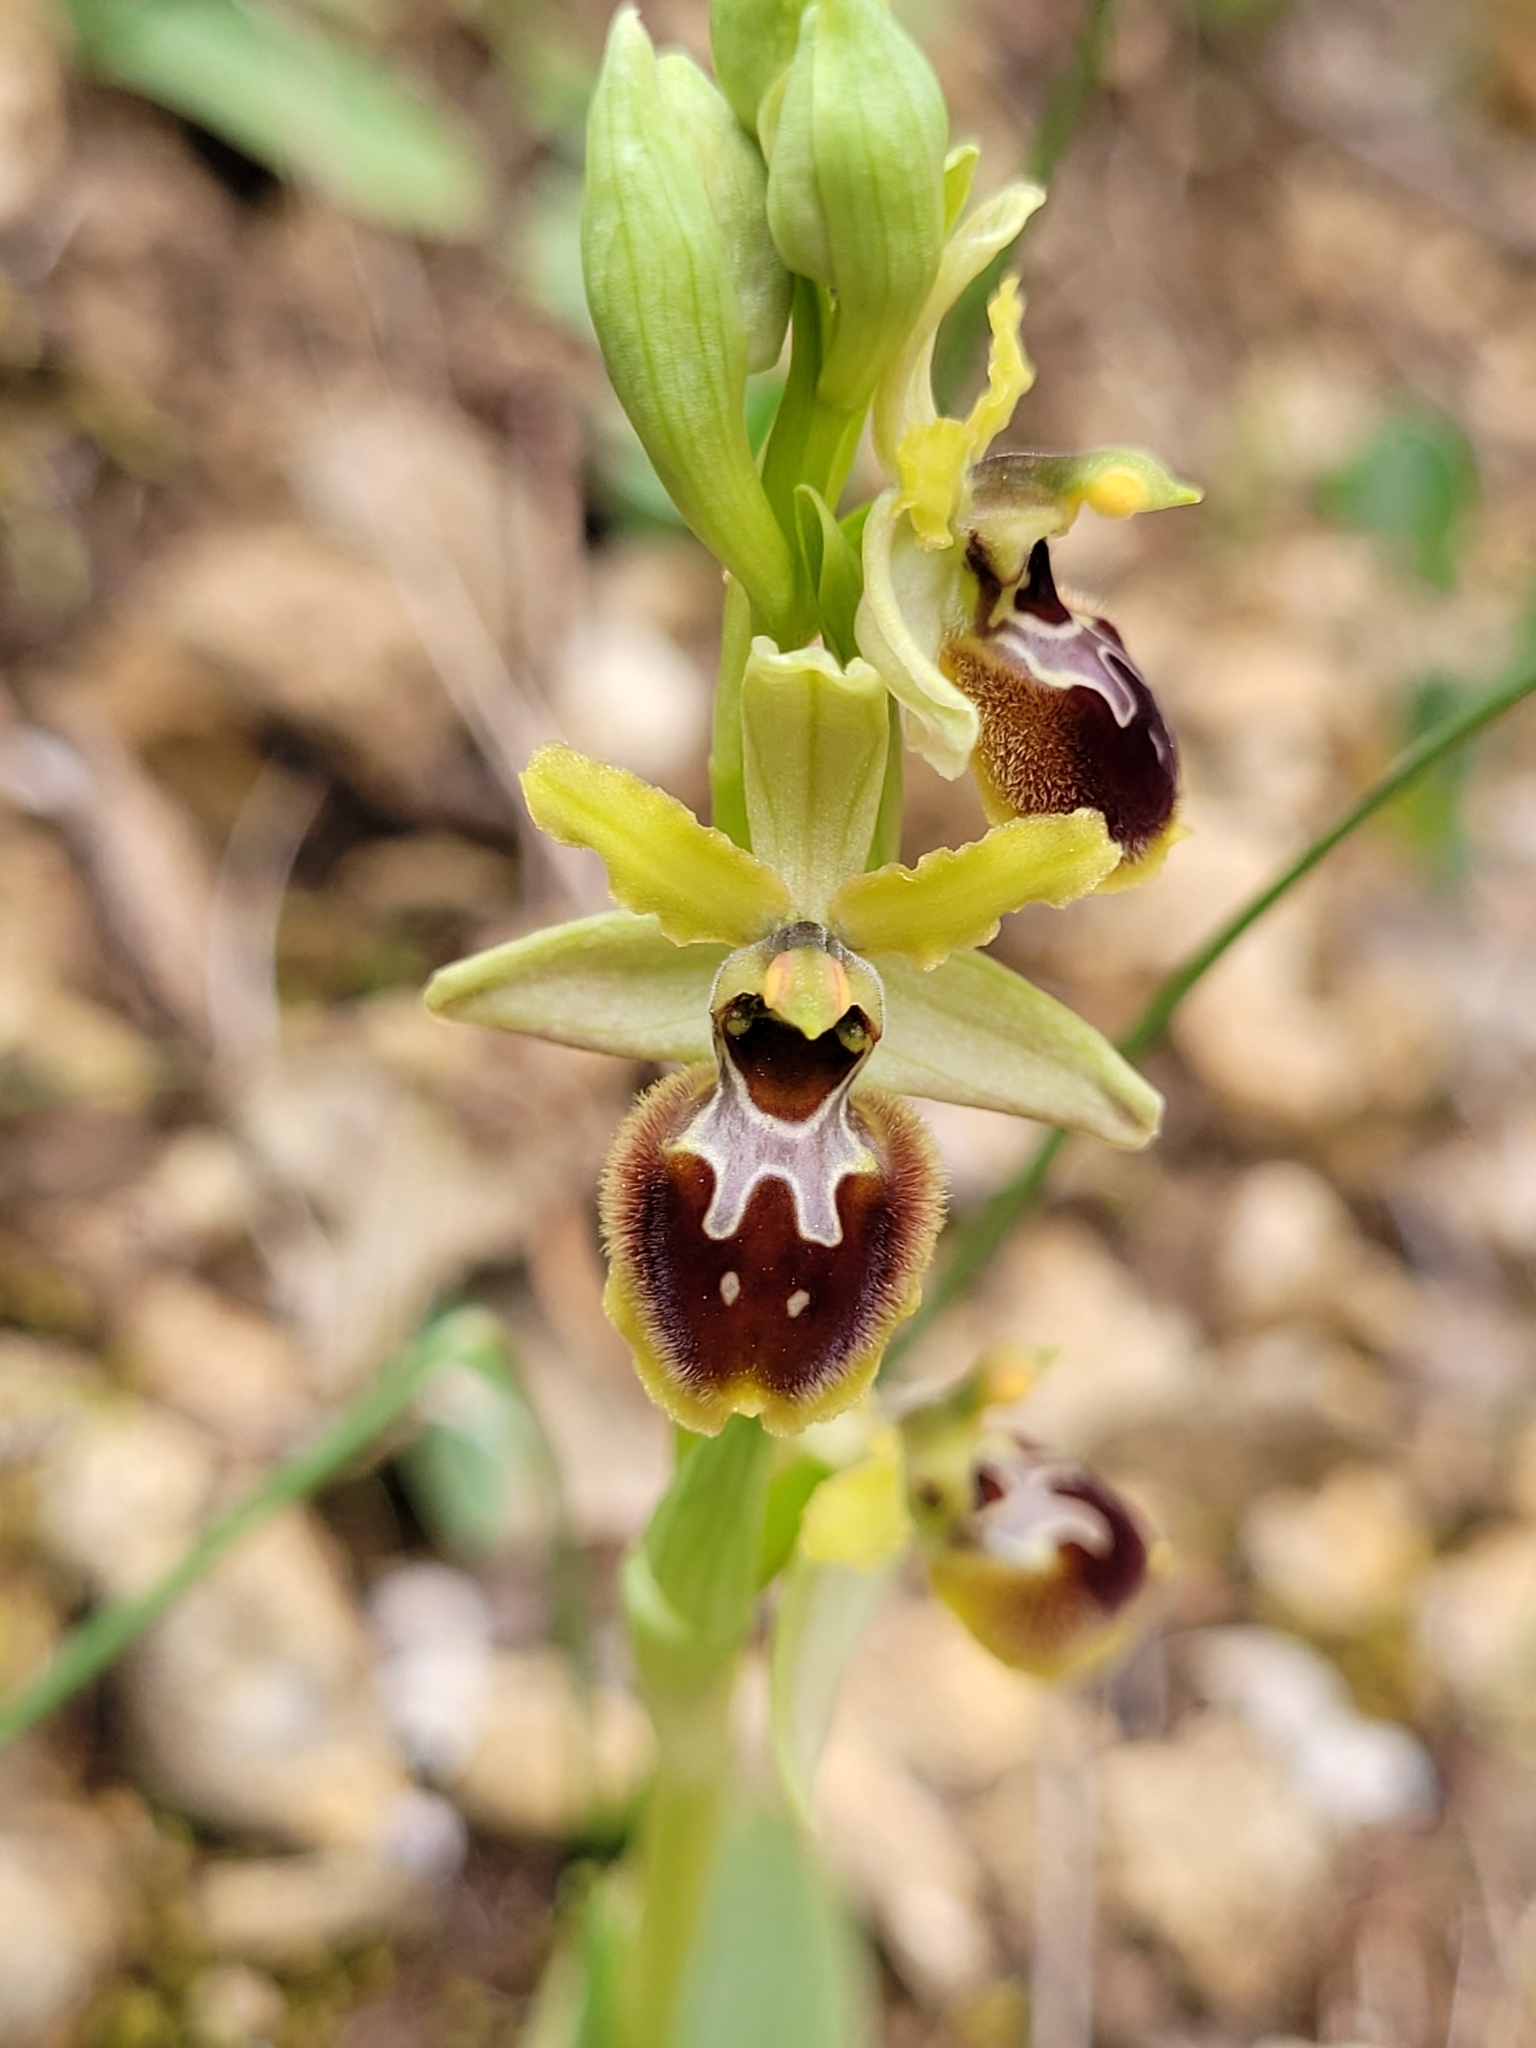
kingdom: Plantae
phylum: Tracheophyta
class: Liliopsida
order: Asparagales
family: Orchidaceae
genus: Ophrys
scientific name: Ophrys araneola
